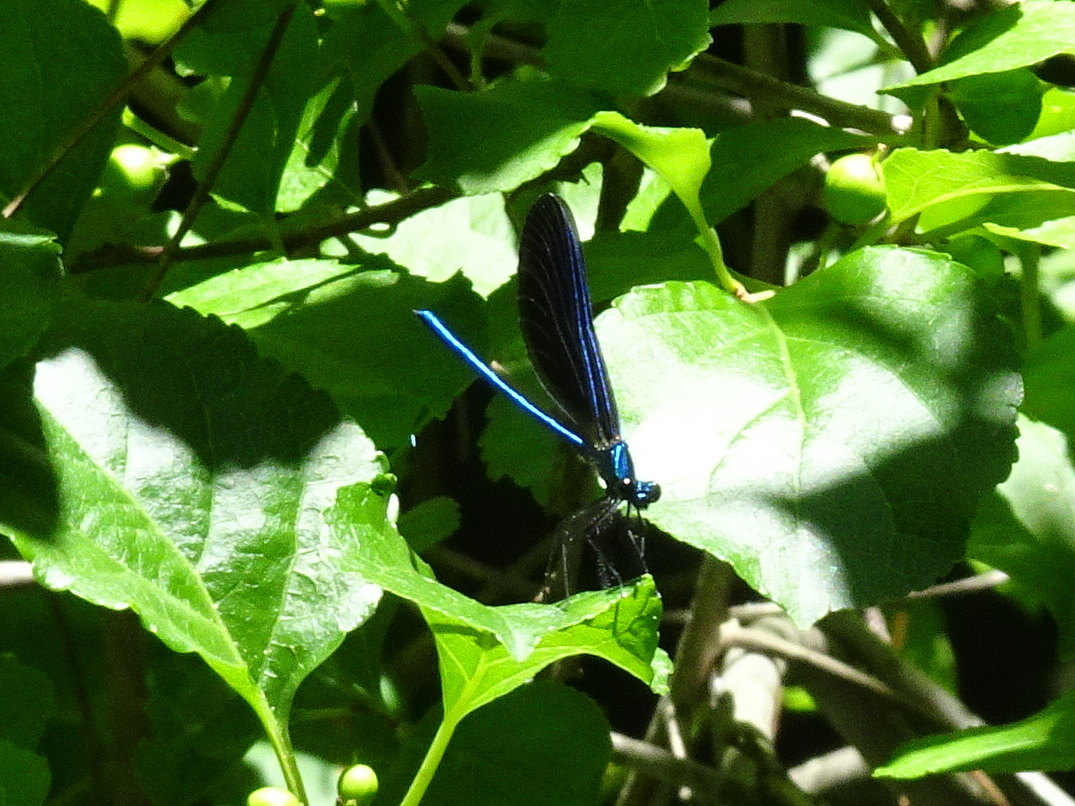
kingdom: Animalia
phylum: Arthropoda
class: Insecta
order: Odonata
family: Calopterygidae
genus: Calopteryx
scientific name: Calopteryx maculata
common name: Ebony jewelwing
